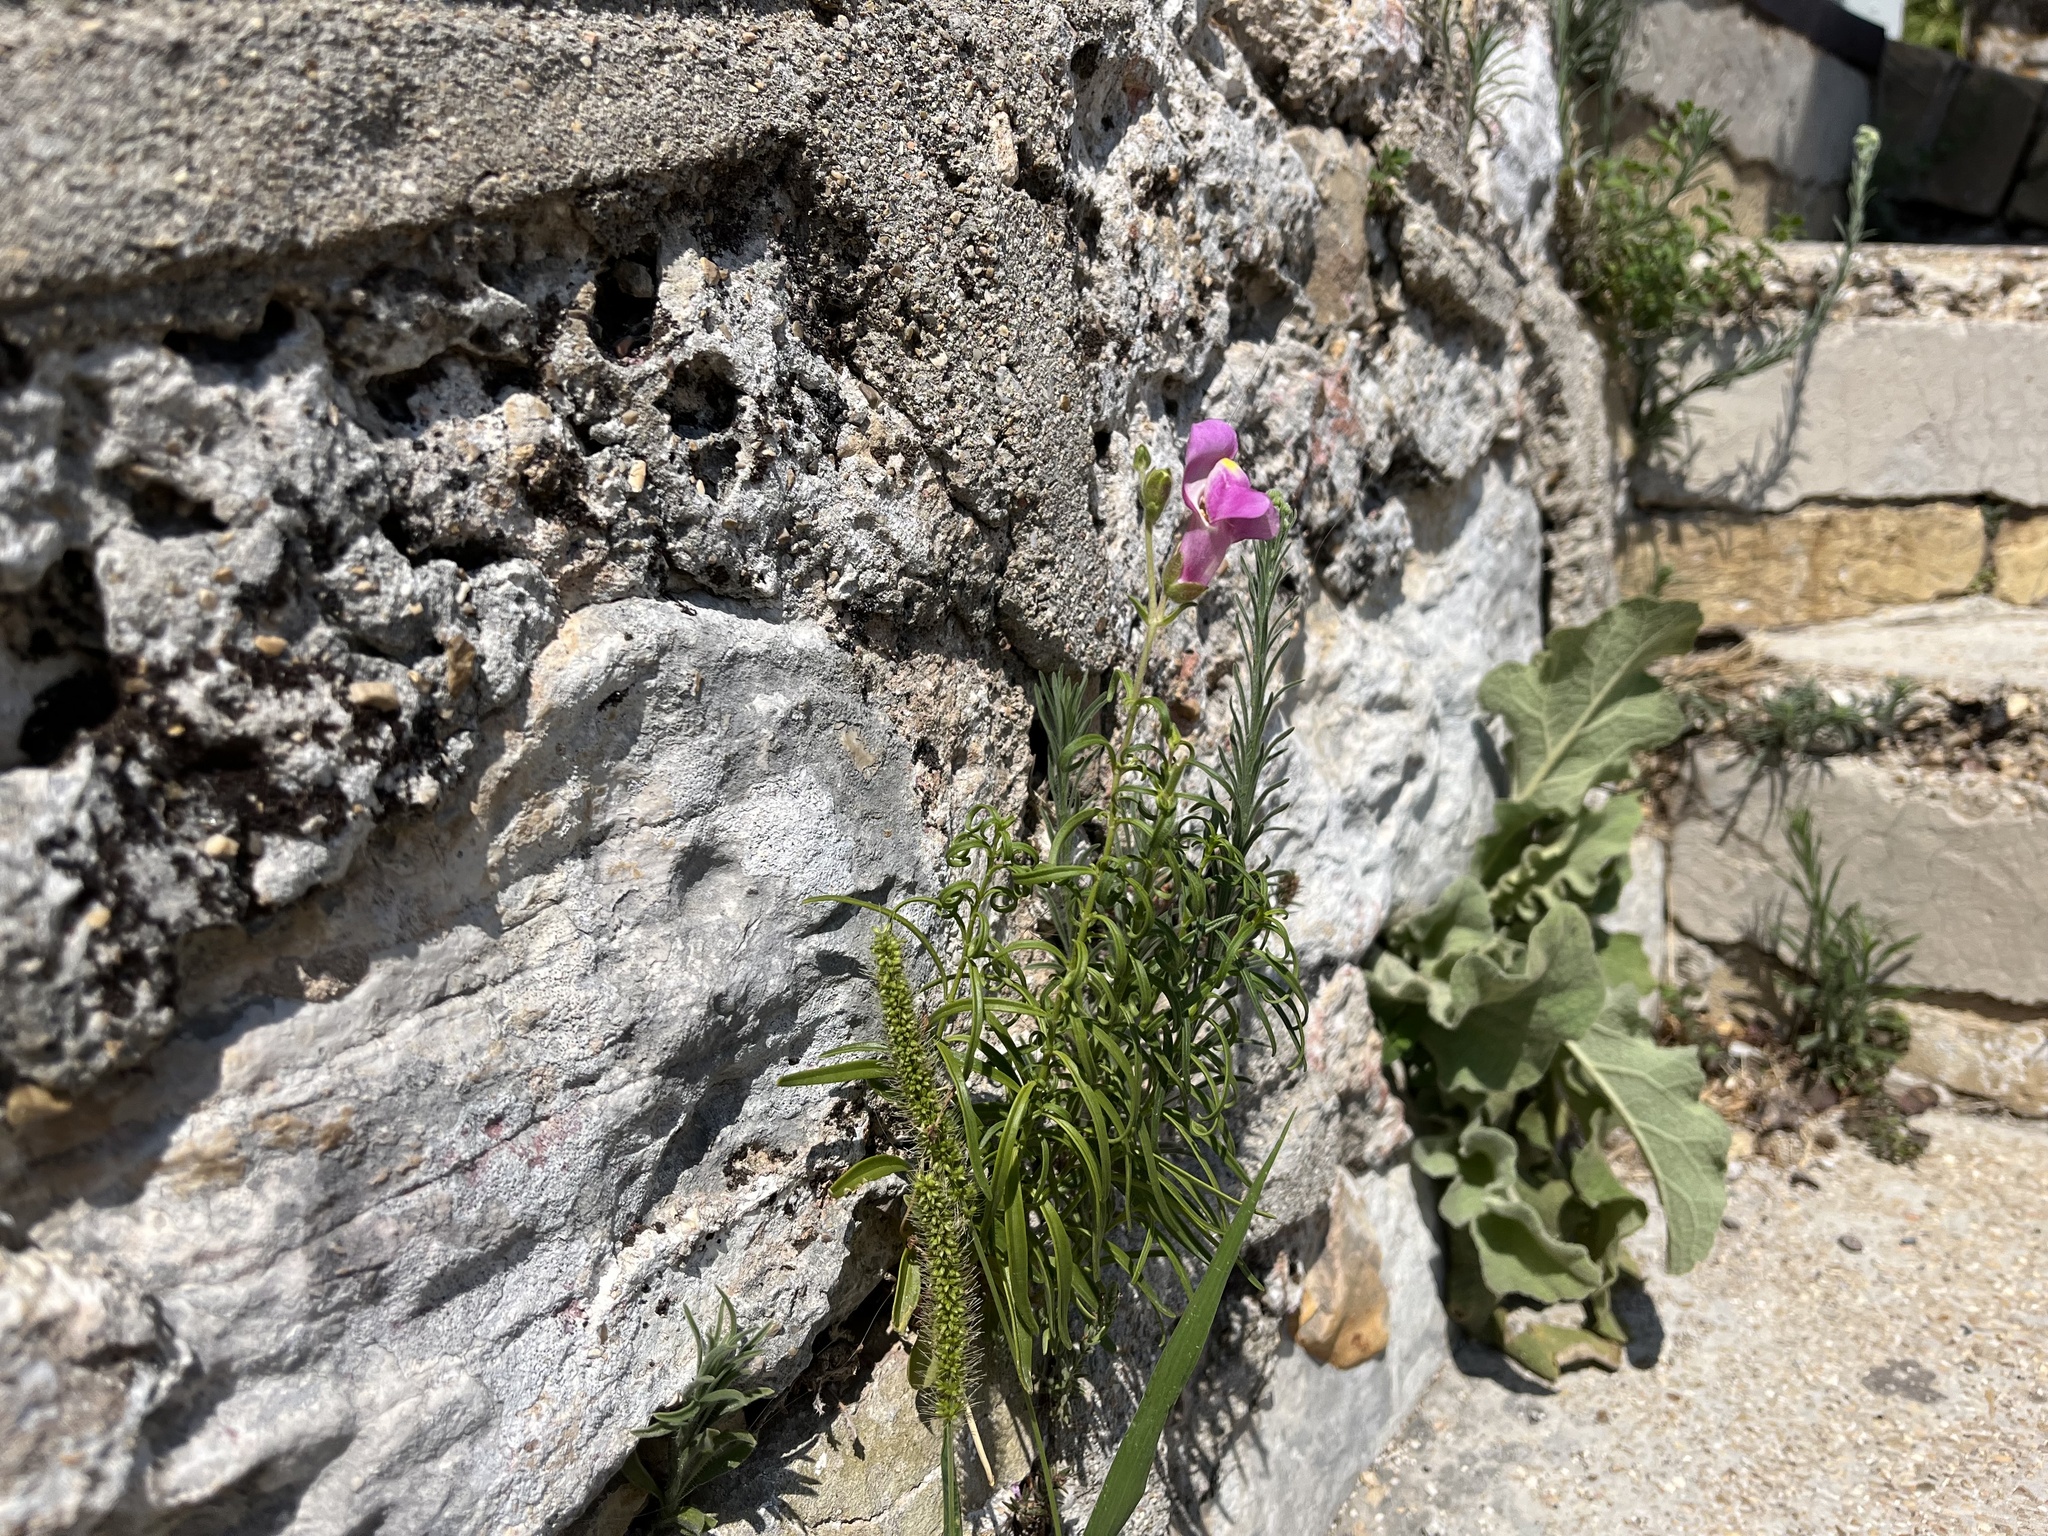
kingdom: Plantae
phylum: Tracheophyta
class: Magnoliopsida
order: Lamiales
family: Plantaginaceae
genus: Antirrhinum
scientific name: Antirrhinum tortuosum
